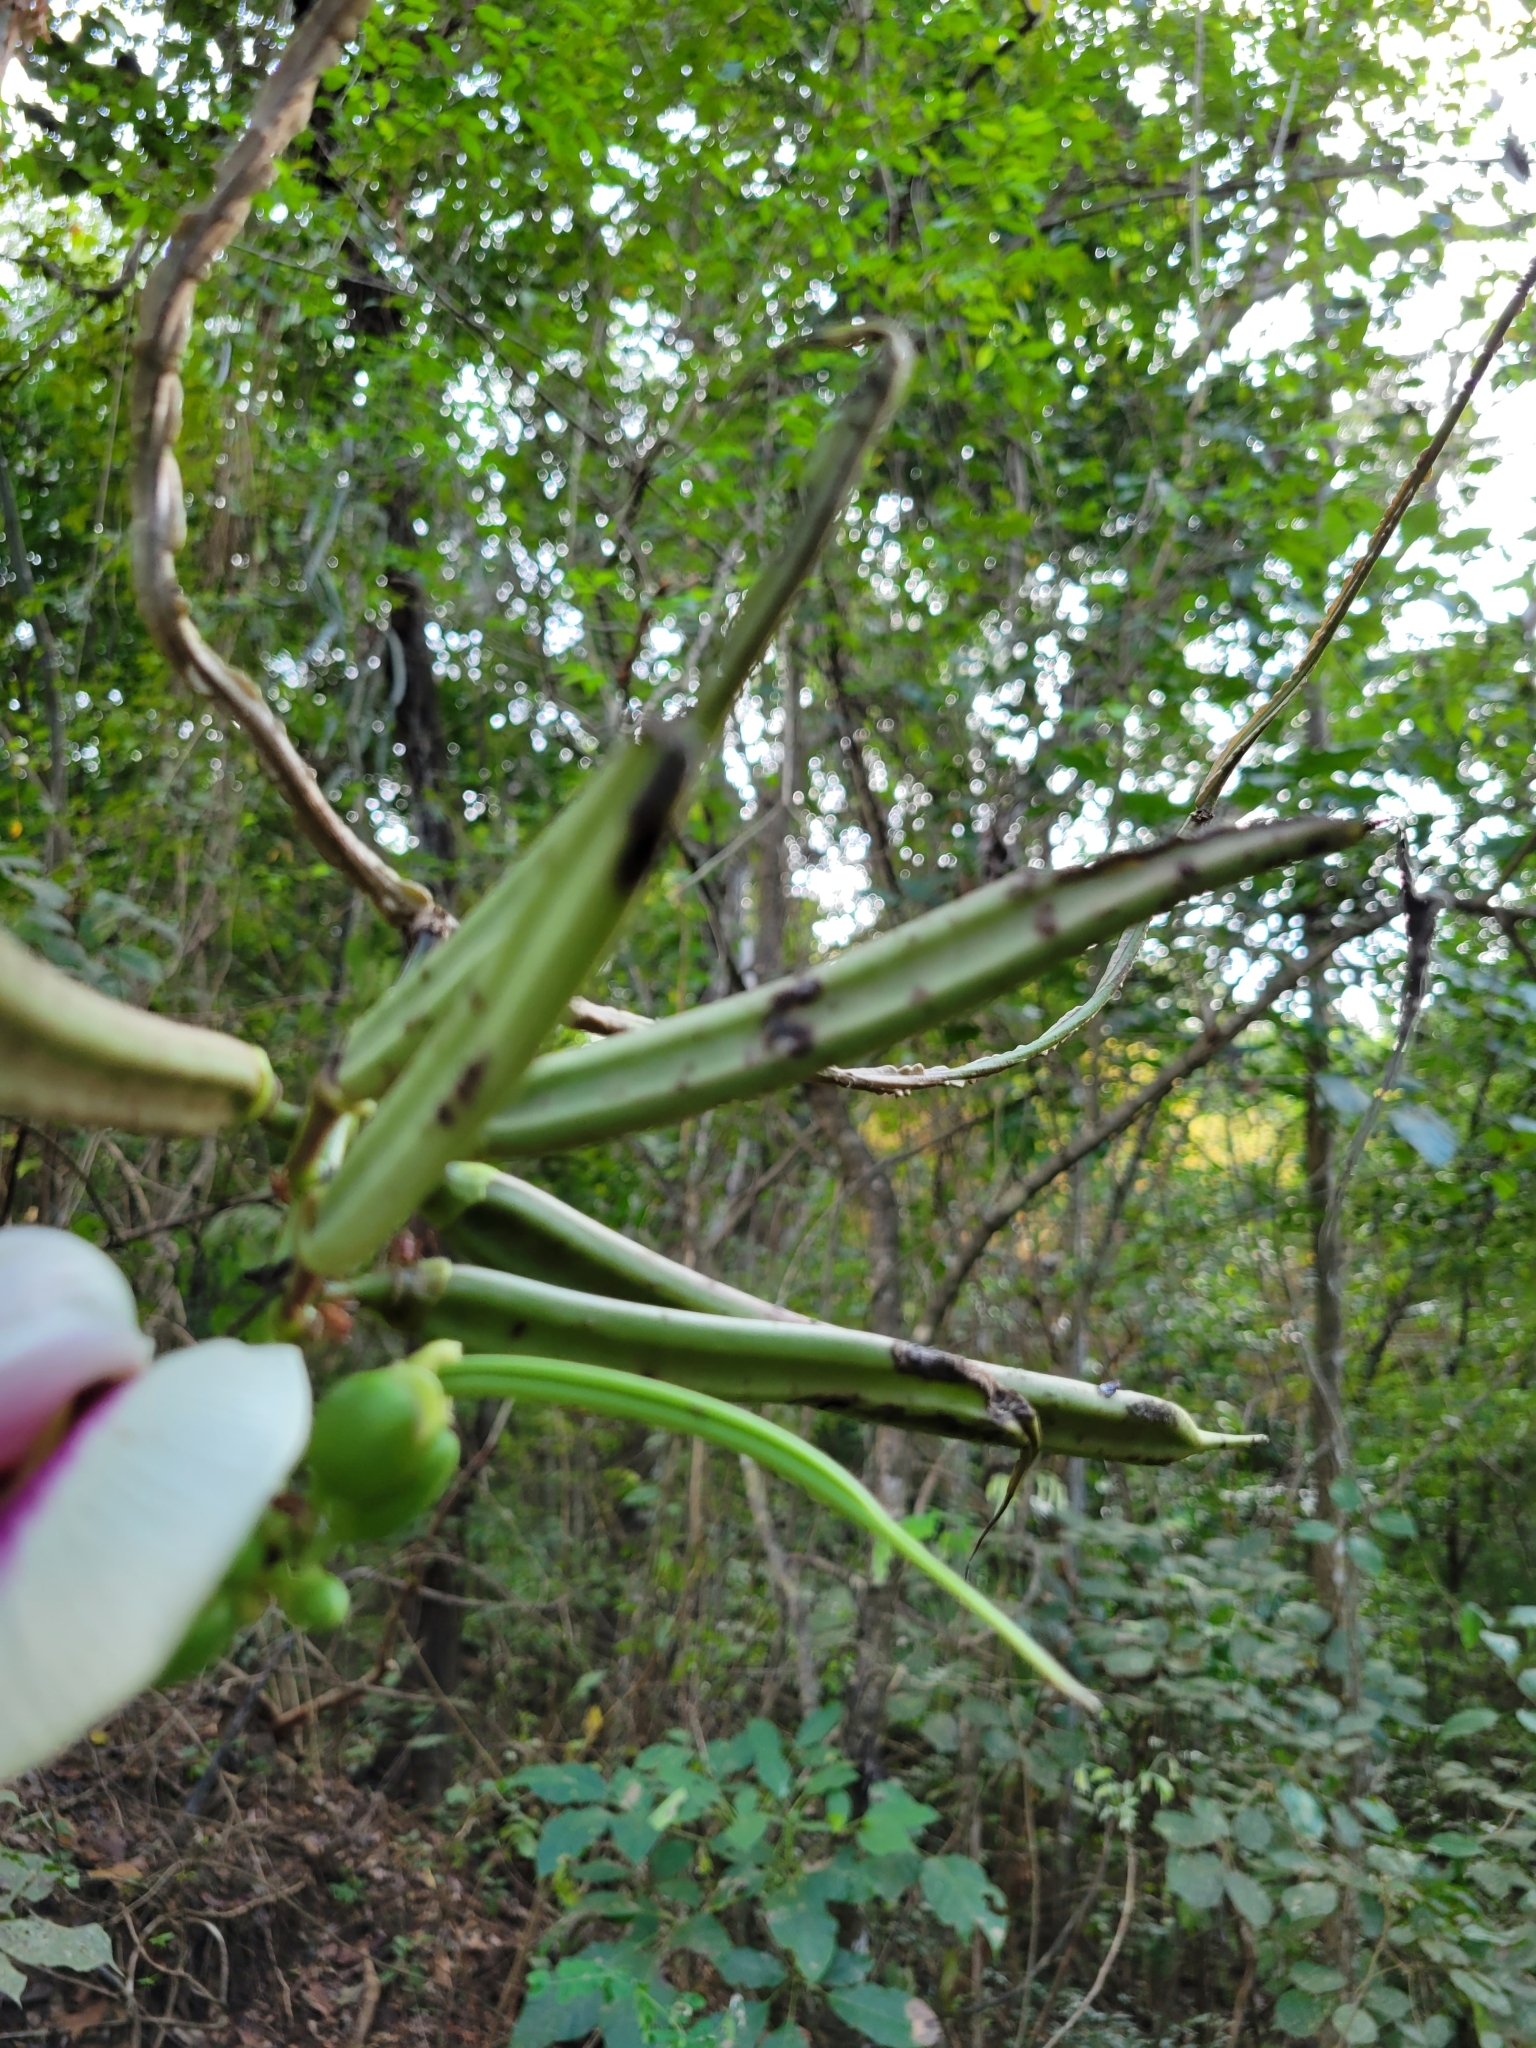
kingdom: Plantae
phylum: Tracheophyta
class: Magnoliopsida
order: Fabales
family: Fabaceae
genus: Centrosema
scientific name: Centrosema plumieri
